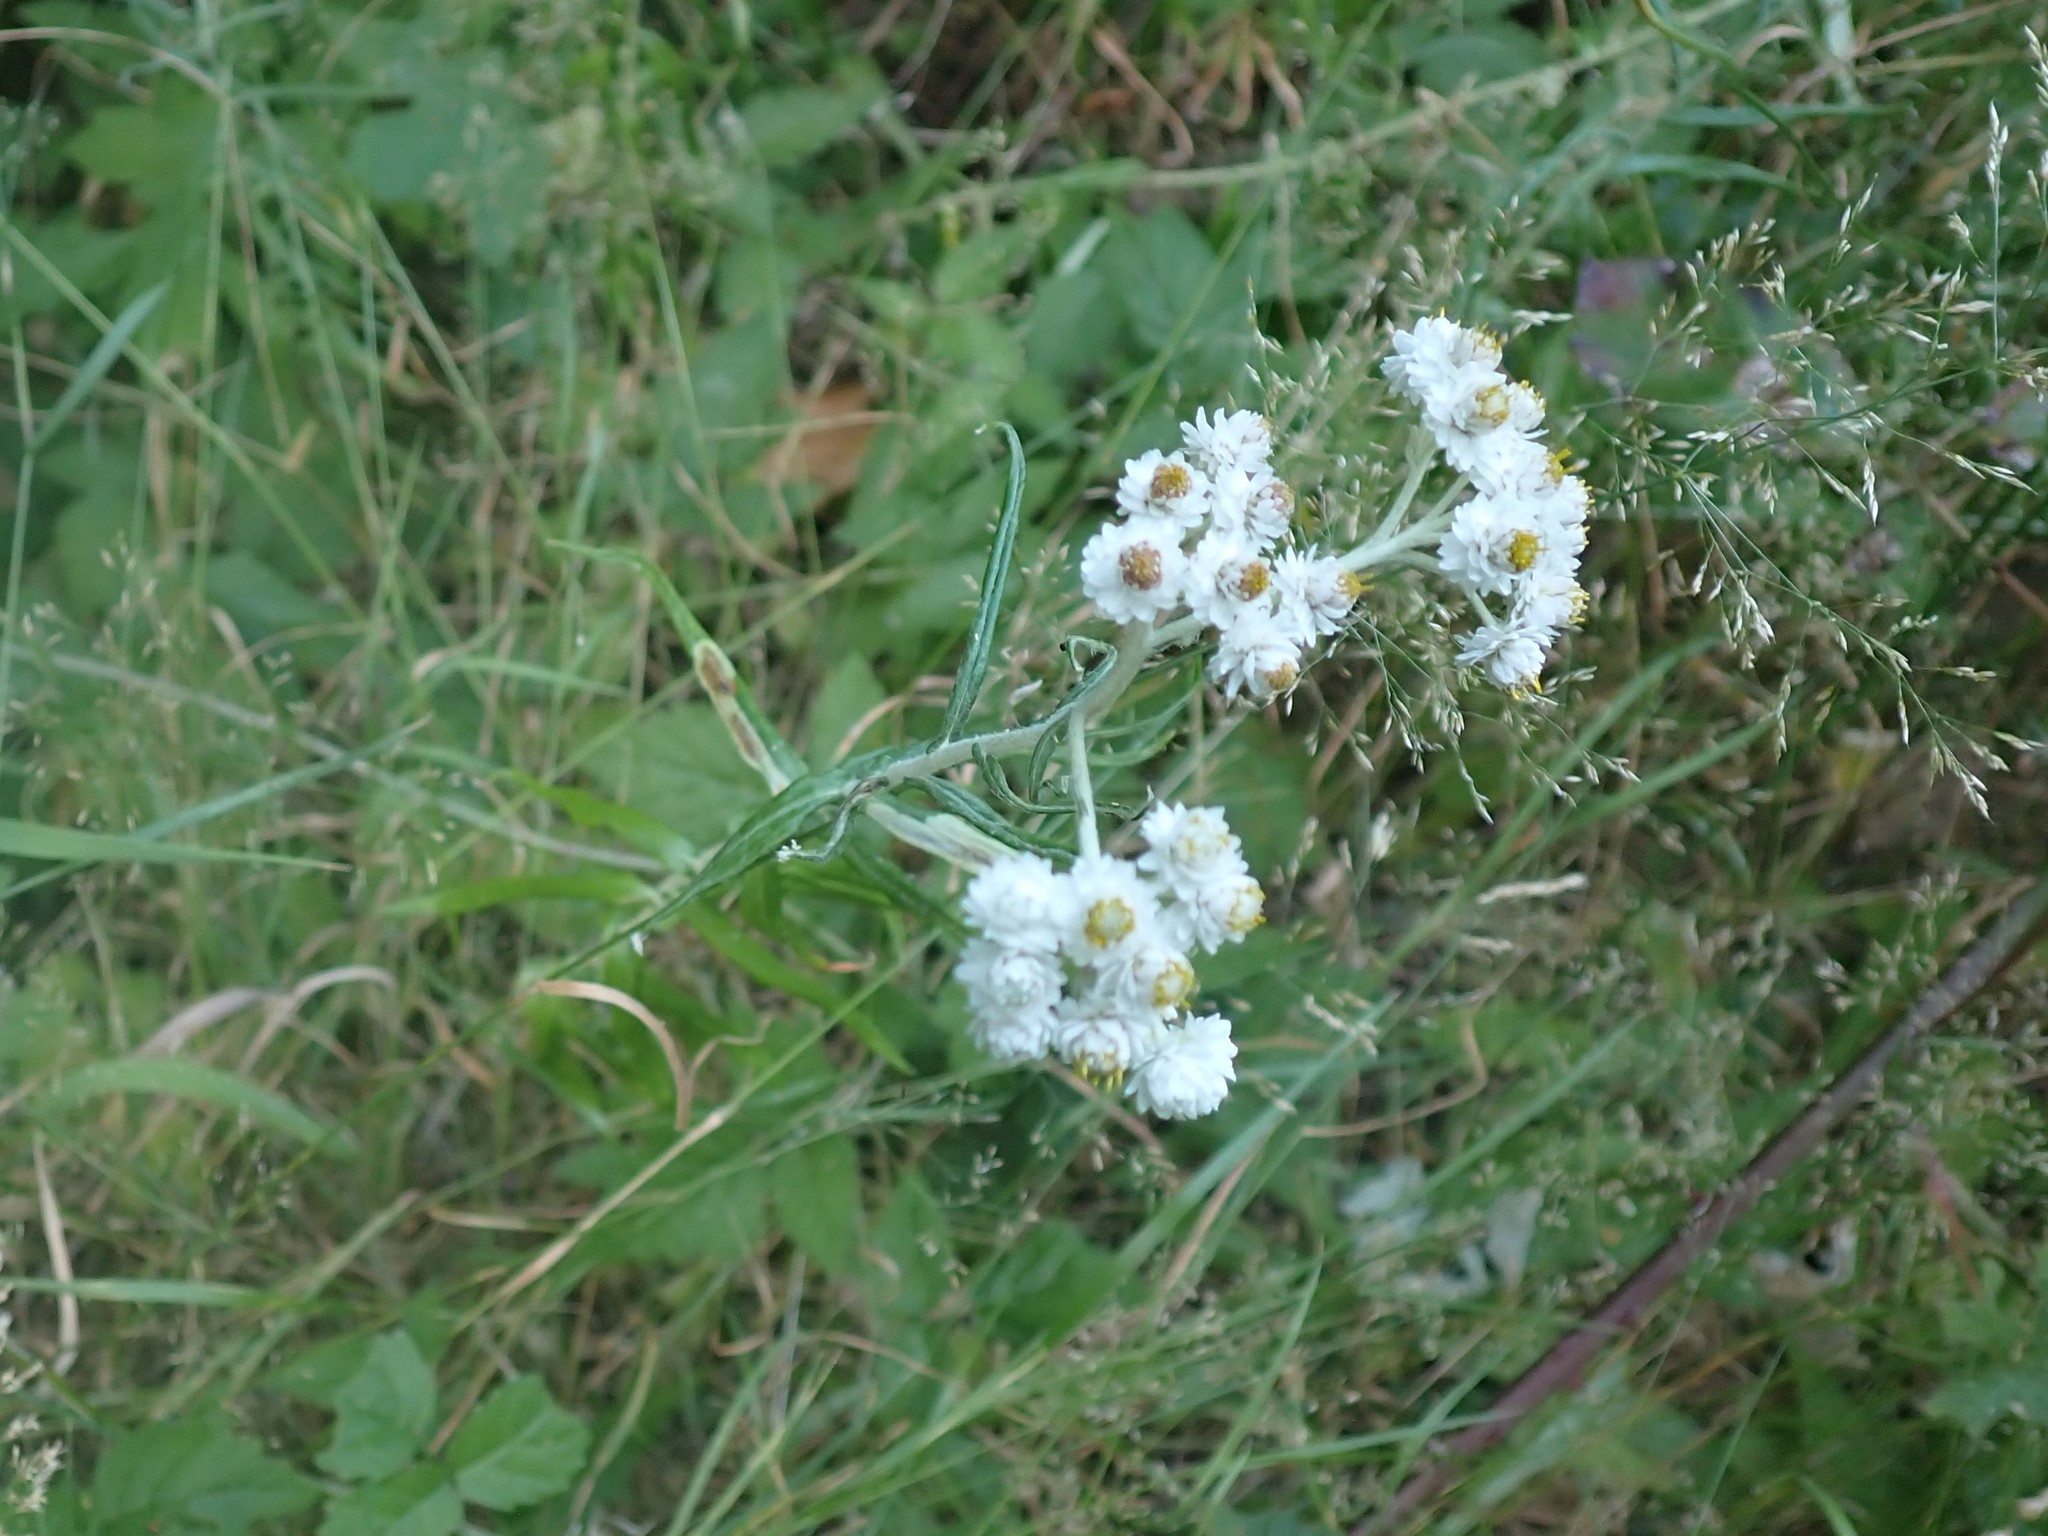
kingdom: Plantae
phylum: Tracheophyta
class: Magnoliopsida
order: Asterales
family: Asteraceae
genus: Anaphalis
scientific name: Anaphalis margaritacea
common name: Pearly everlasting
